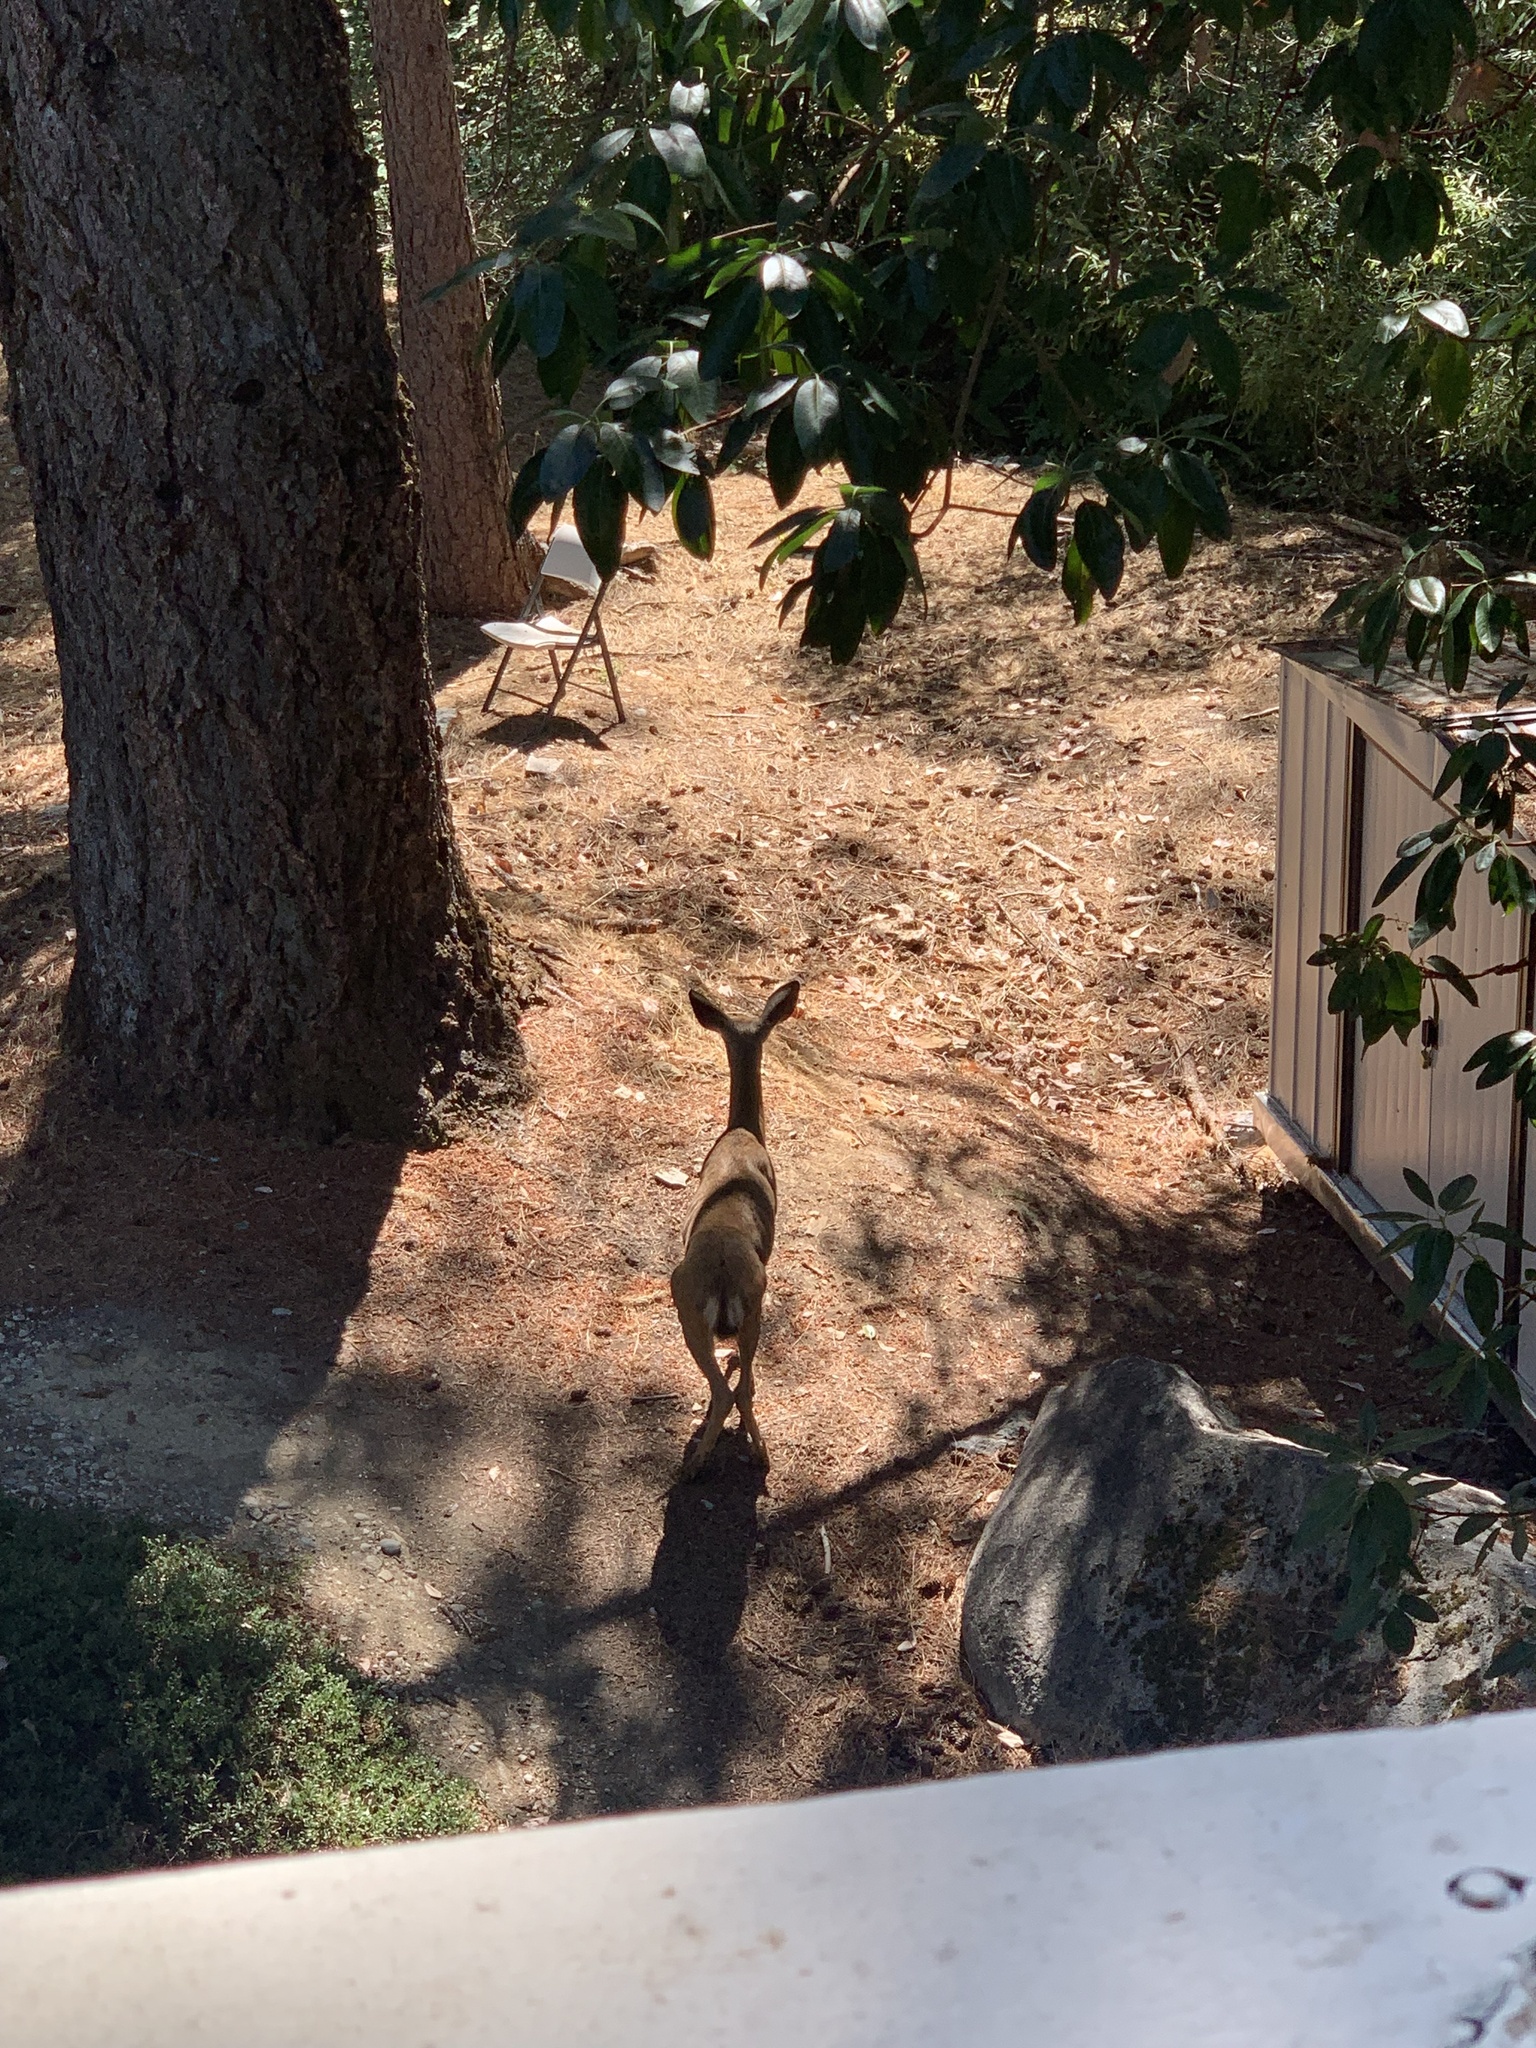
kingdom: Animalia
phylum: Chordata
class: Mammalia
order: Artiodactyla
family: Cervidae
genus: Odocoileus
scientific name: Odocoileus hemionus
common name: Mule deer
